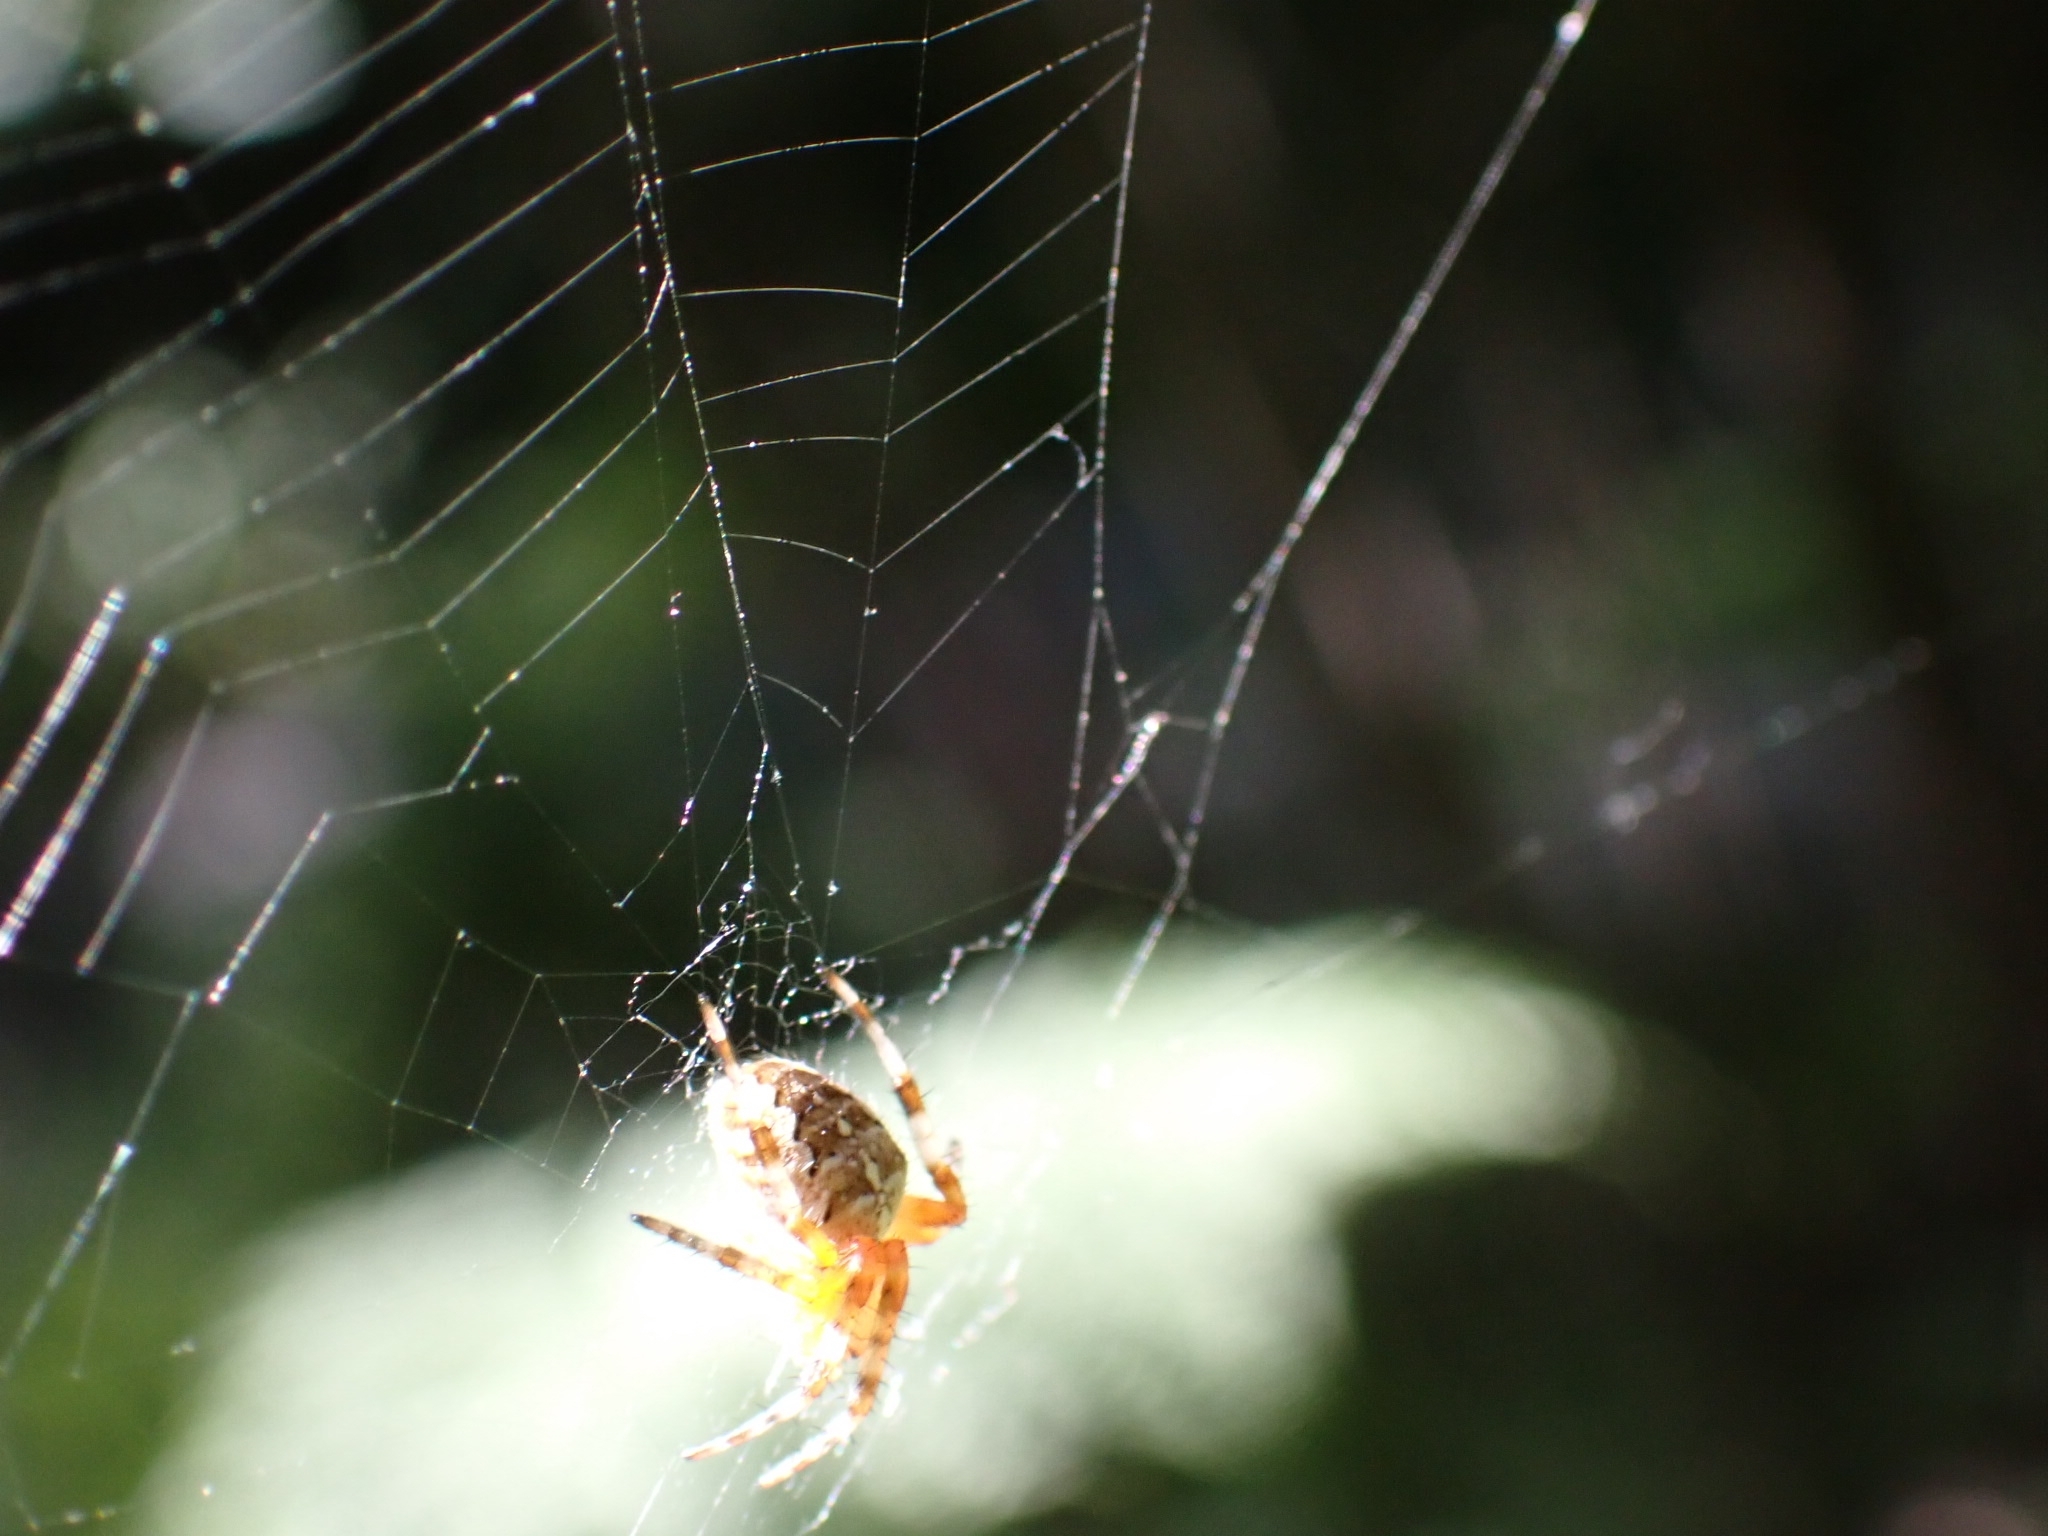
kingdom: Animalia
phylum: Arthropoda
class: Arachnida
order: Araneae
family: Araneidae
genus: Araneus
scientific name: Araneus diadematus
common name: Cross orbweaver
